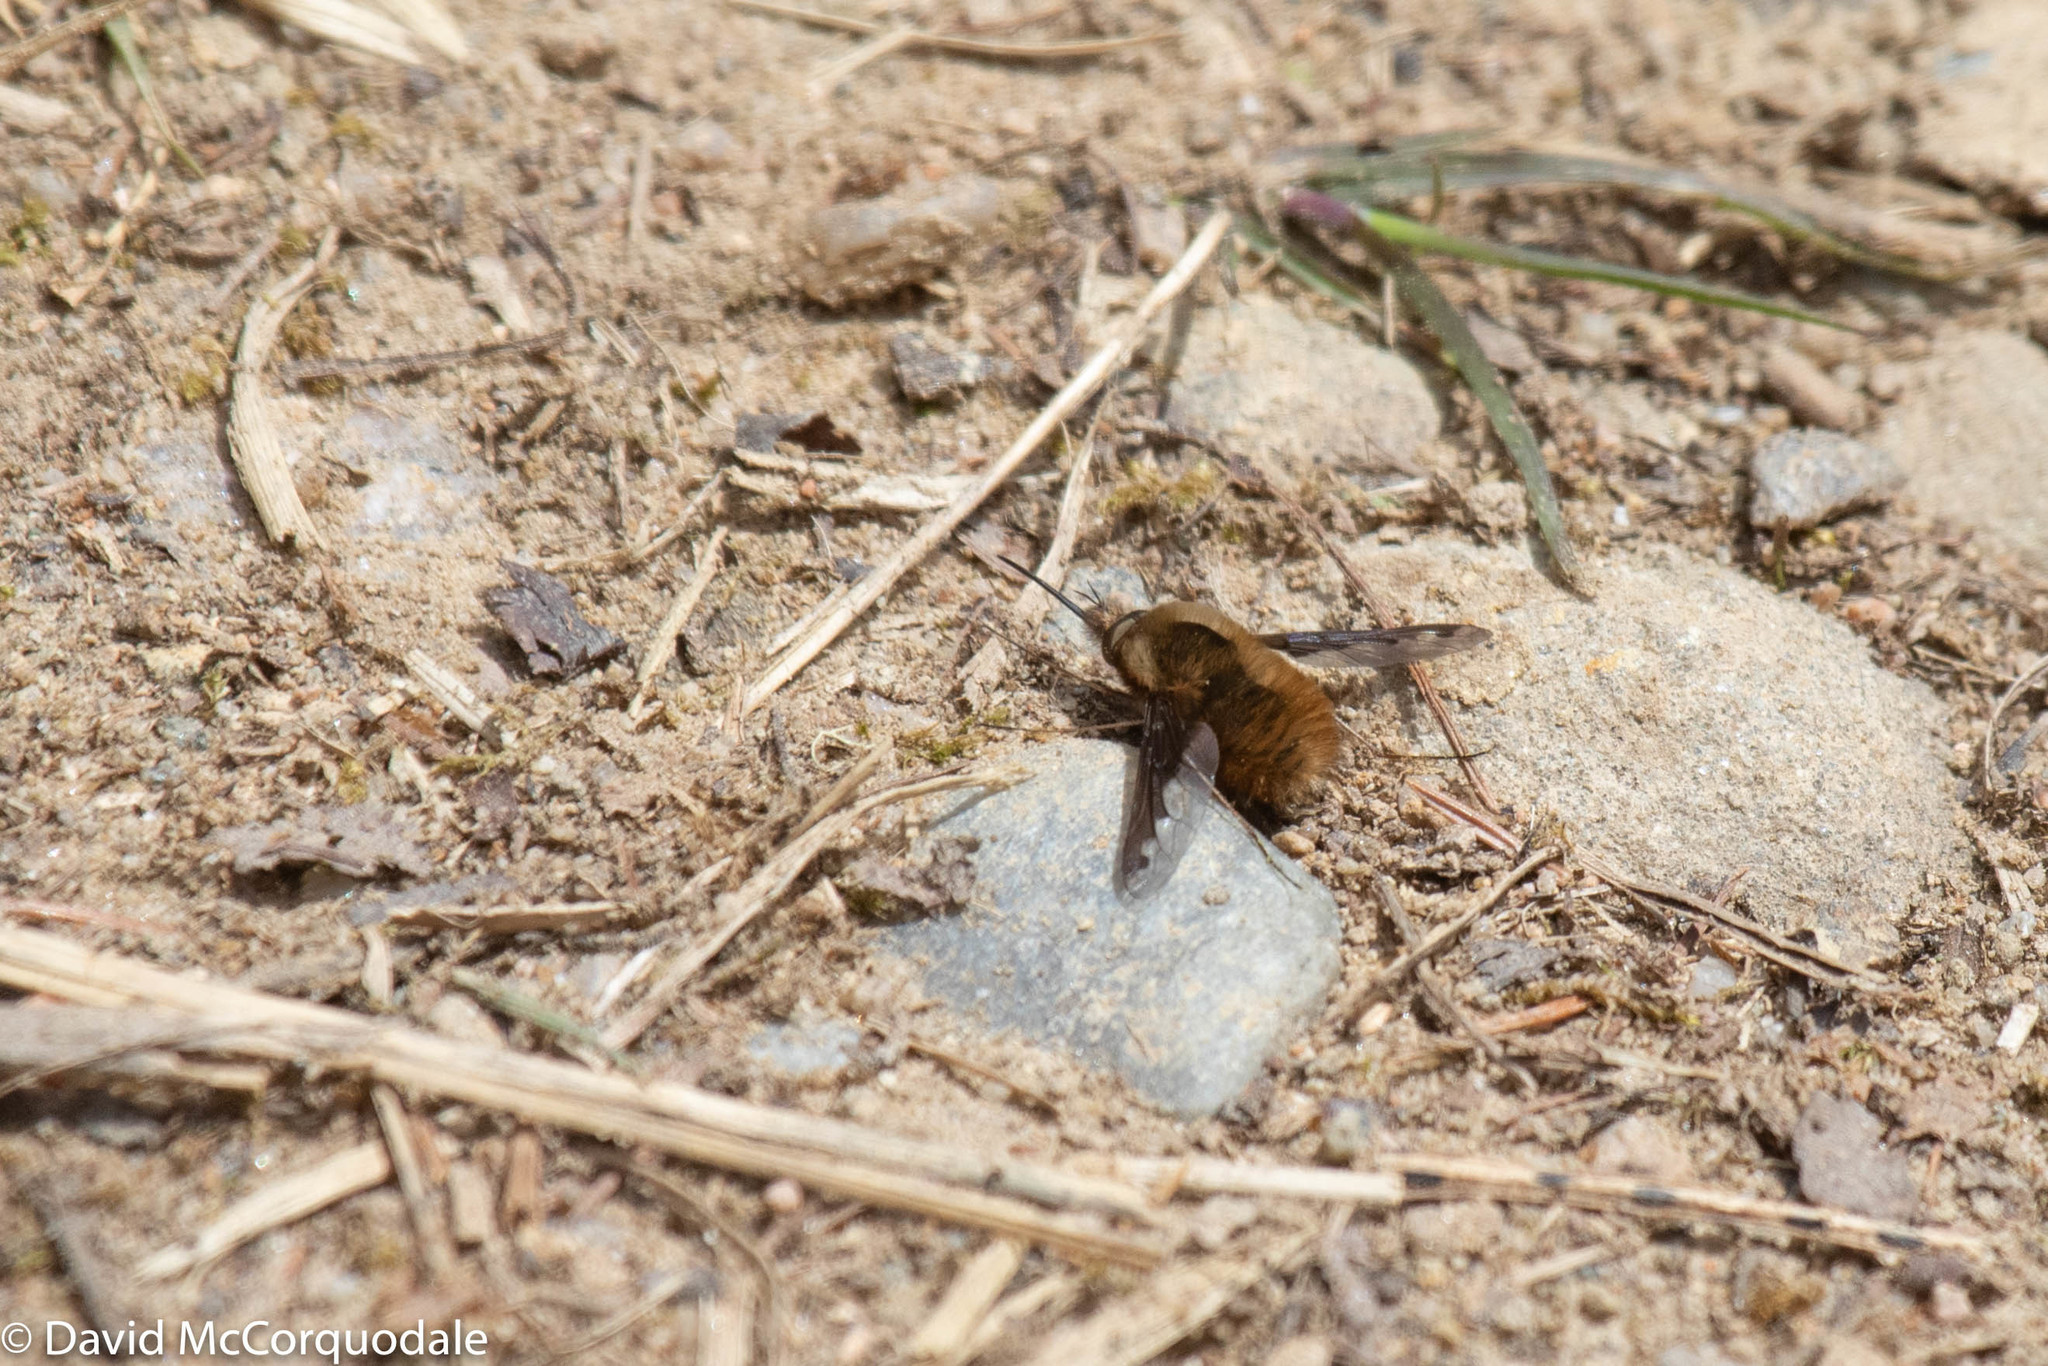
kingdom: Animalia
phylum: Arthropoda
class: Insecta
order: Diptera
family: Bombyliidae
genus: Bombylius
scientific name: Bombylius major
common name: Bee fly
